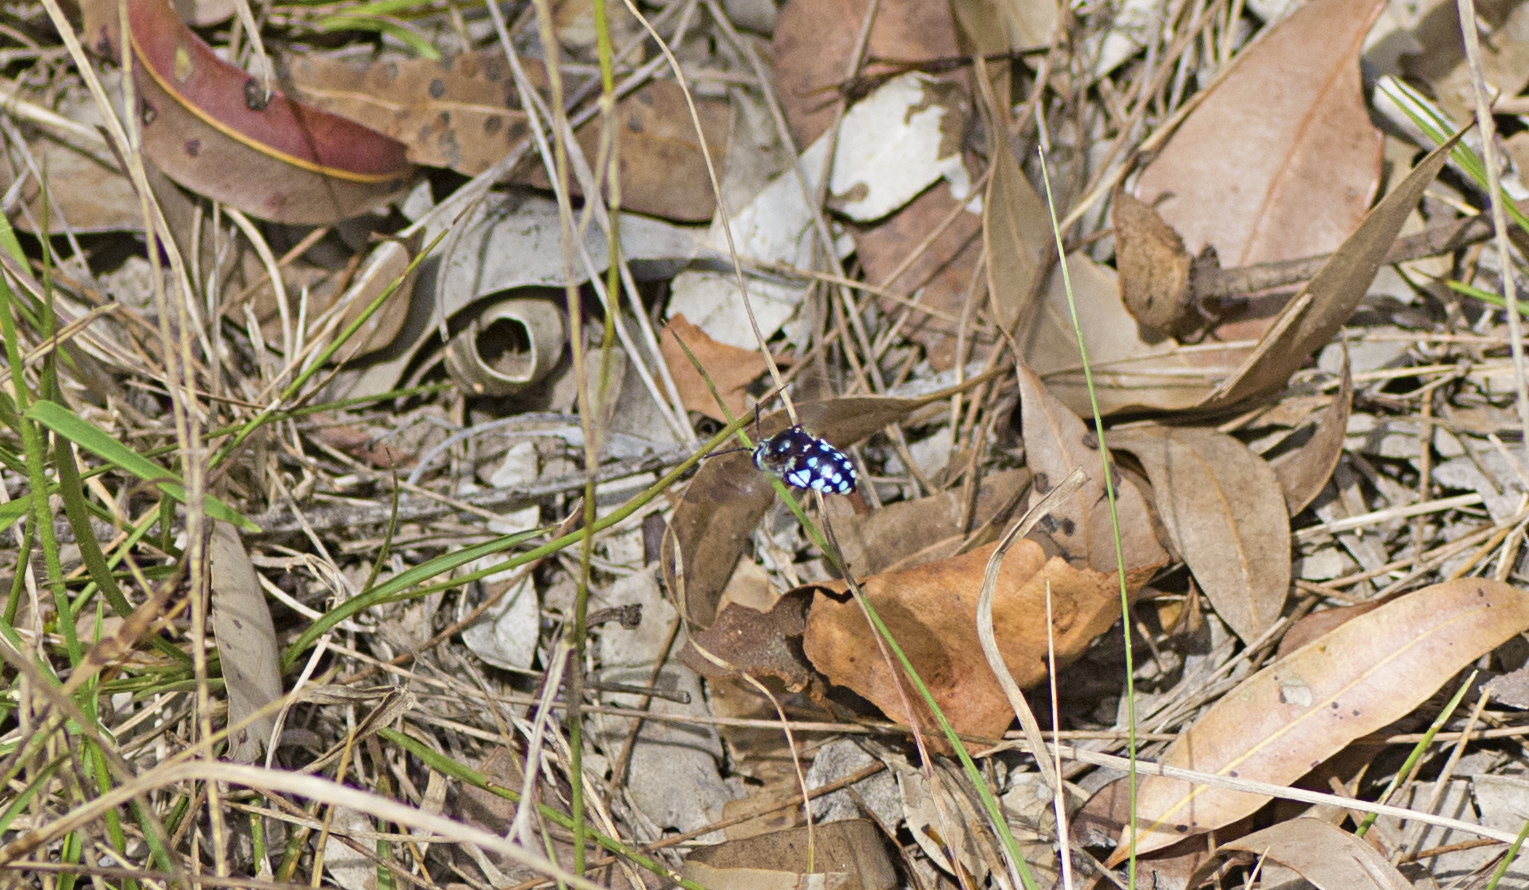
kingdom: Animalia
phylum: Arthropoda
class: Insecta
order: Hymenoptera
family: Apidae
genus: Thyreus
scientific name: Thyreus caeruleopunctatus
